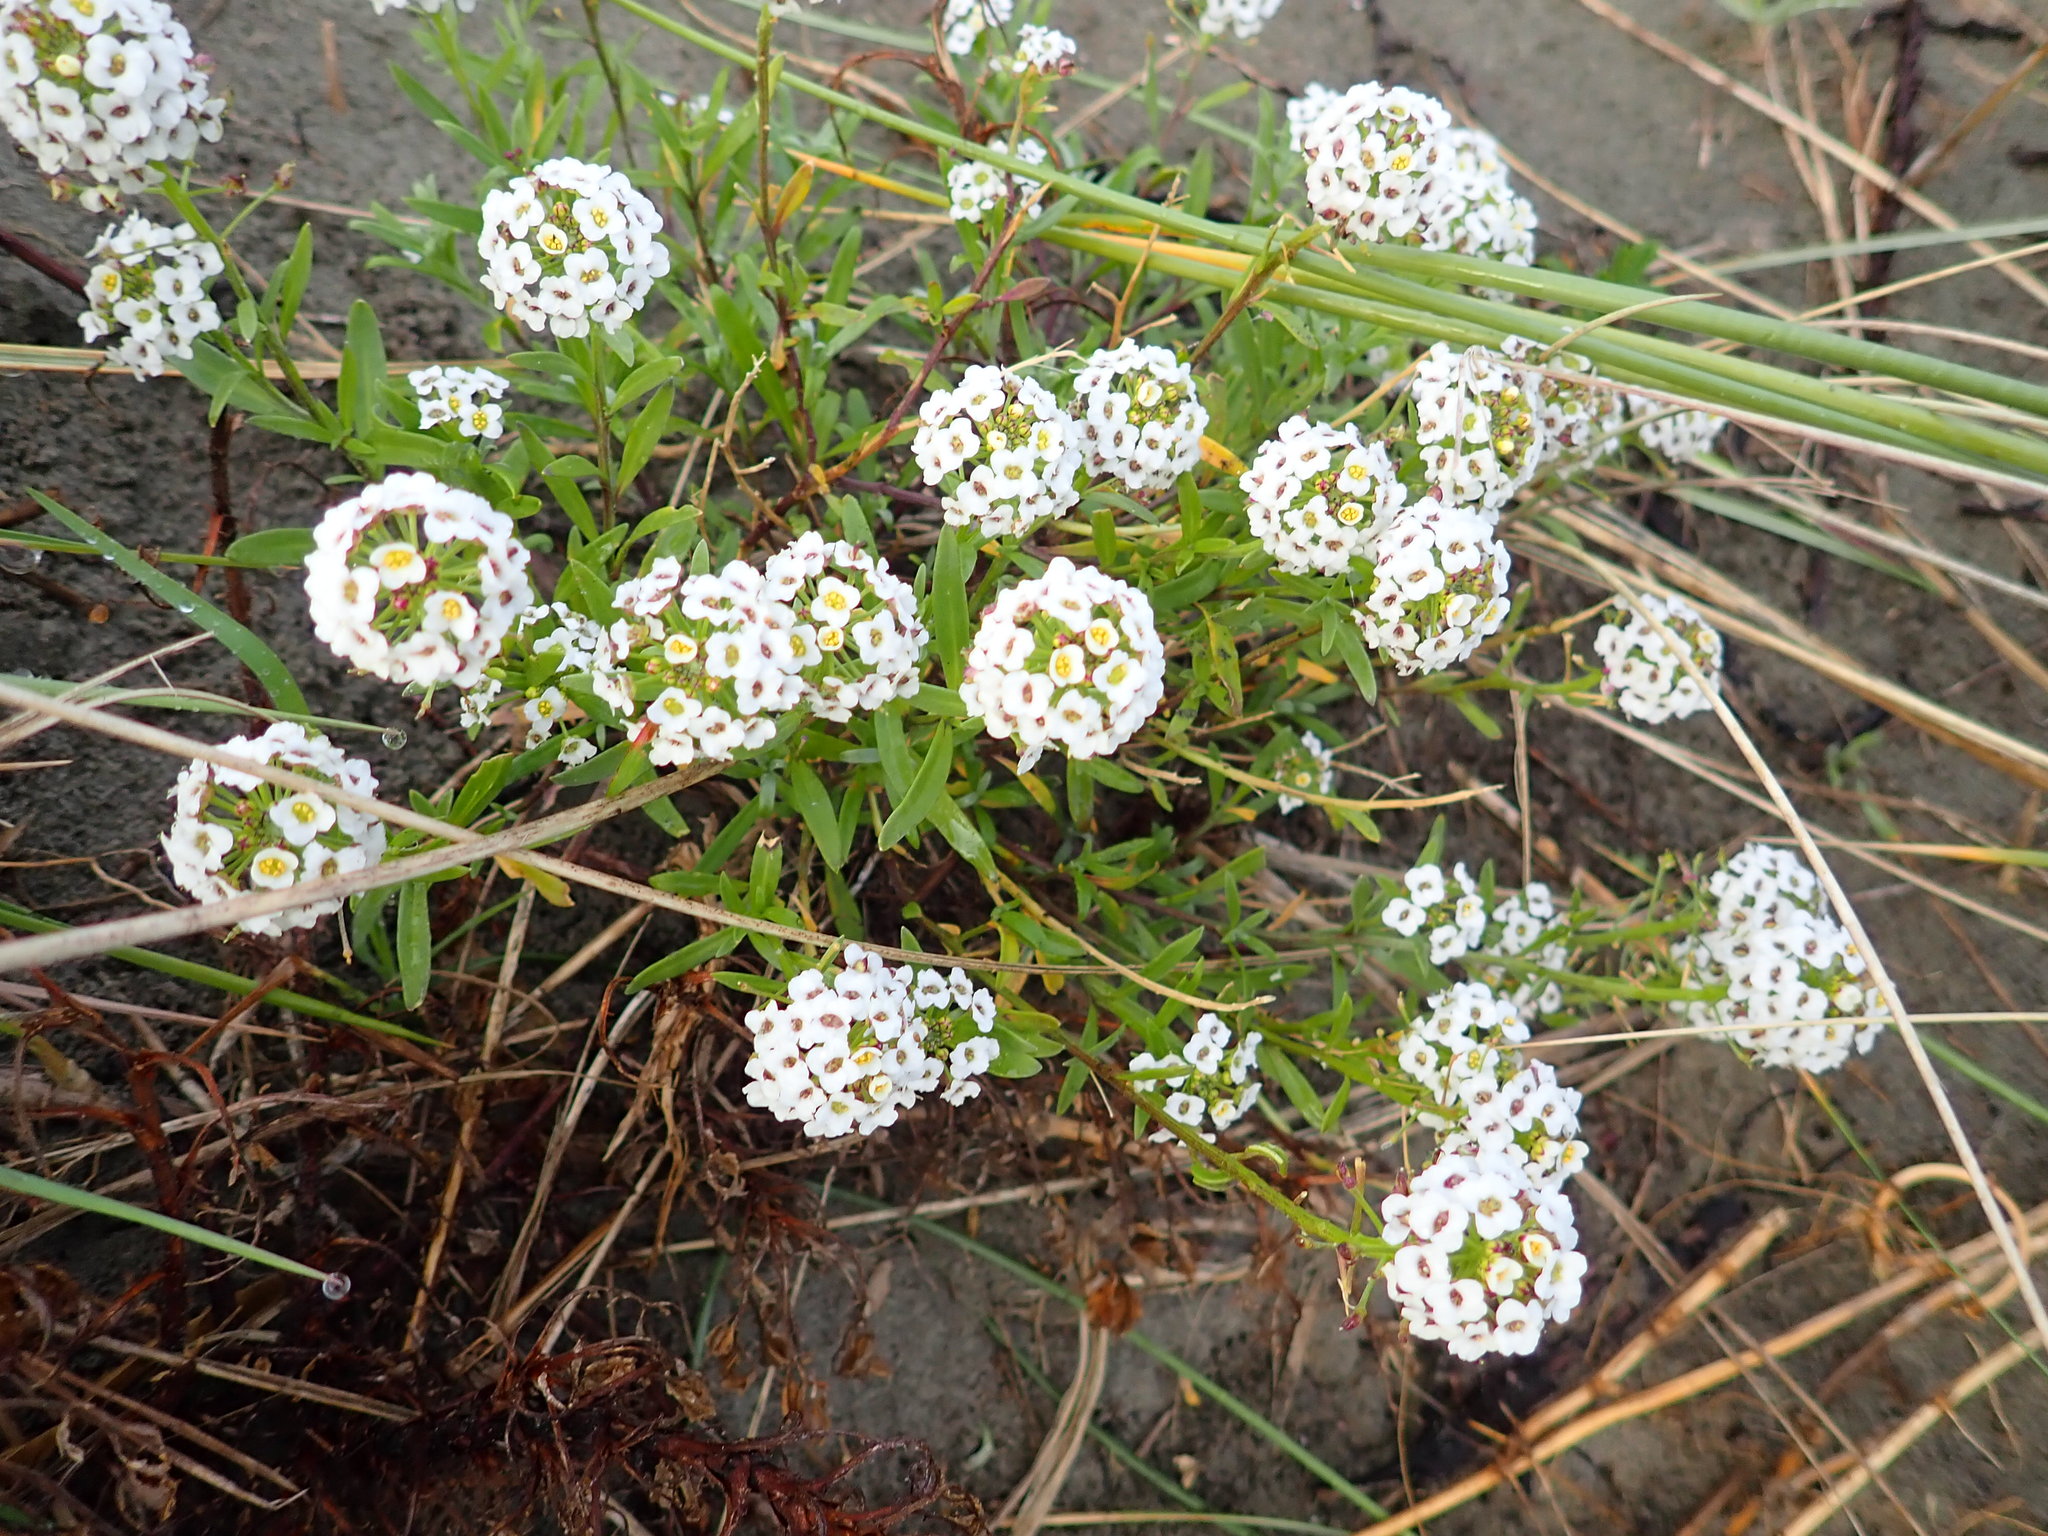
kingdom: Plantae
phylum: Tracheophyta
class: Magnoliopsida
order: Brassicales
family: Brassicaceae
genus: Lobularia
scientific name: Lobularia maritima
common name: Sweet alison
